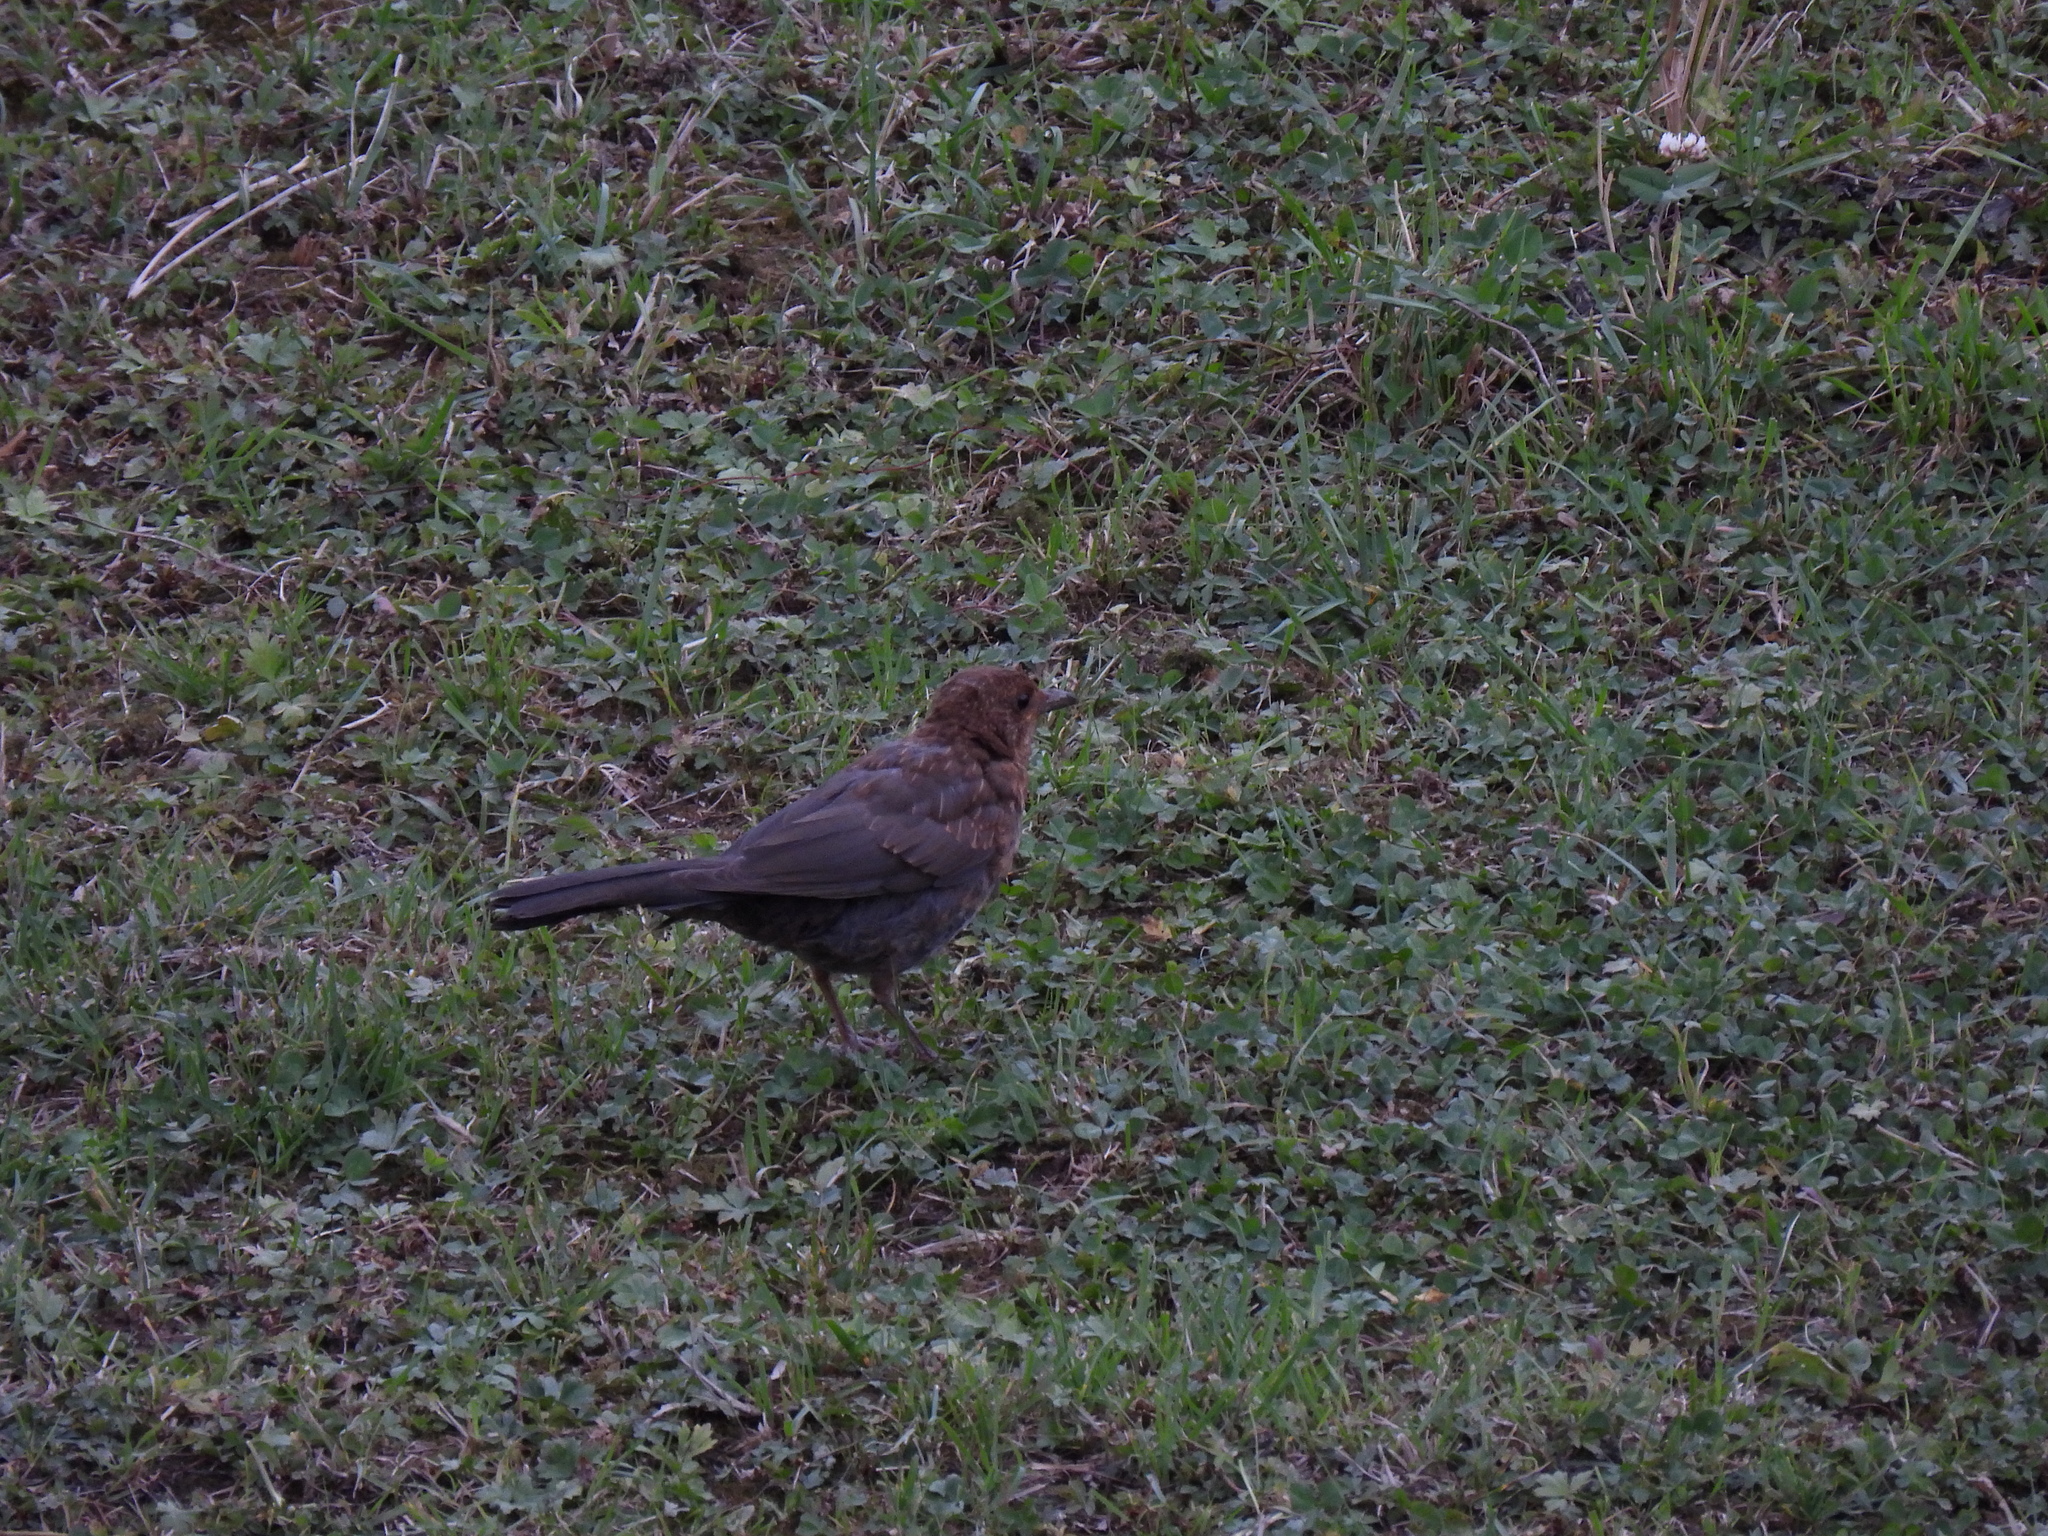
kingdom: Animalia
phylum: Chordata
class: Aves
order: Passeriformes
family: Turdidae
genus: Turdus
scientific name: Turdus merula
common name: Common blackbird
